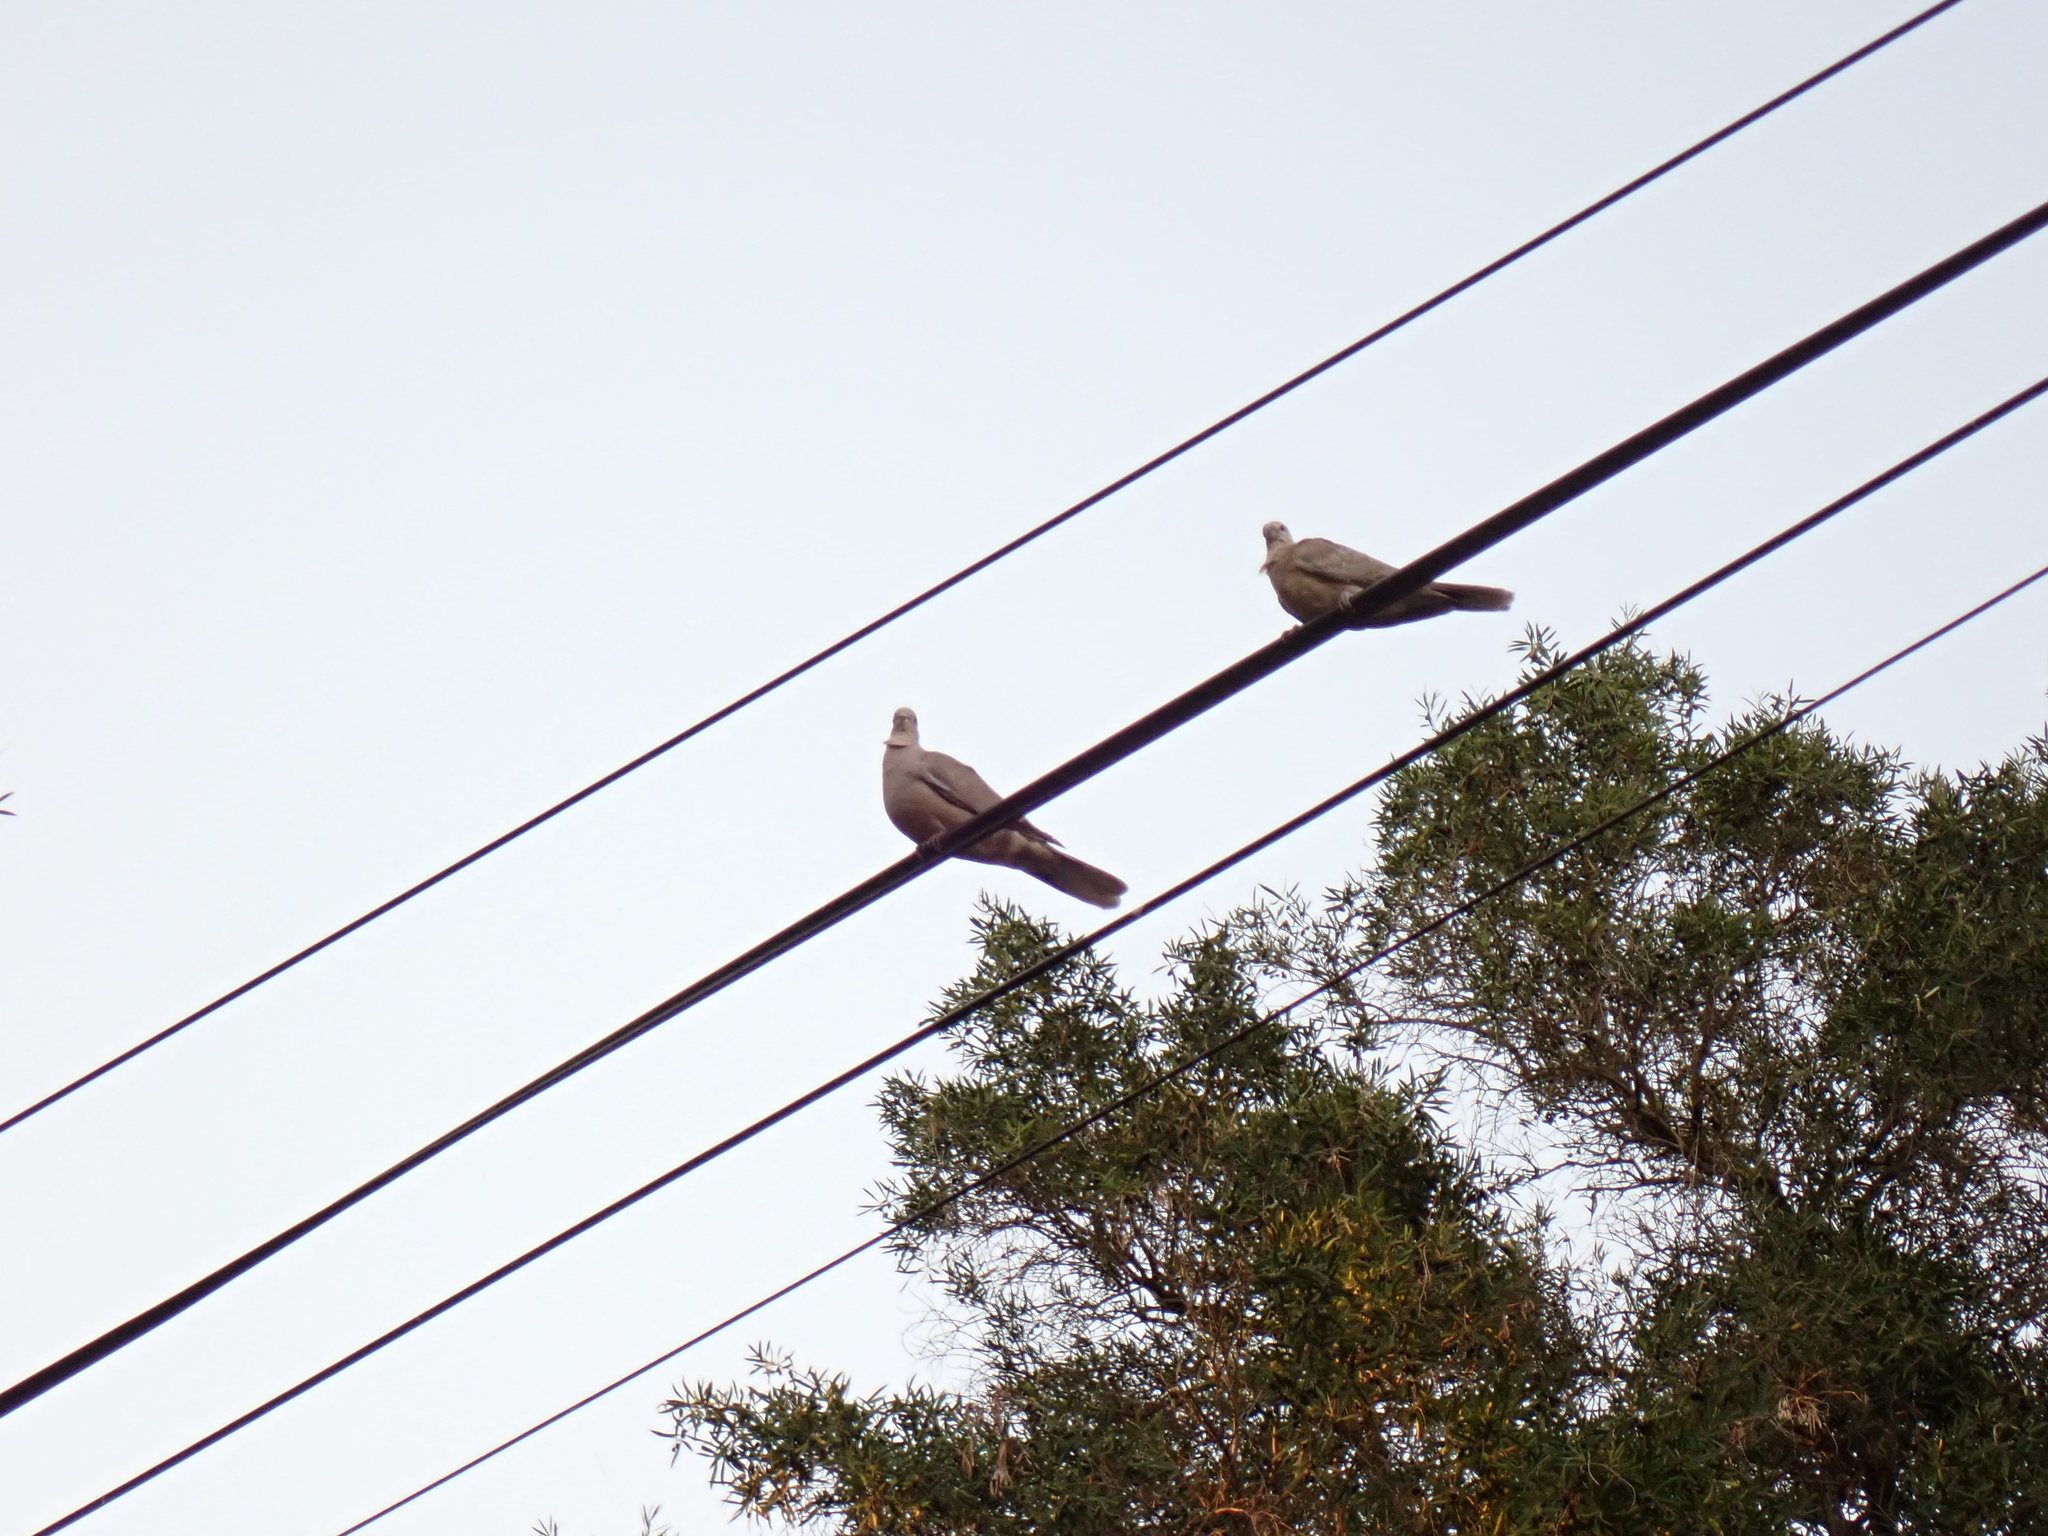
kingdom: Animalia
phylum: Chordata
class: Aves
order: Columbiformes
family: Columbidae
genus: Streptopelia
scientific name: Streptopelia decaocto
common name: Eurasian collared dove
